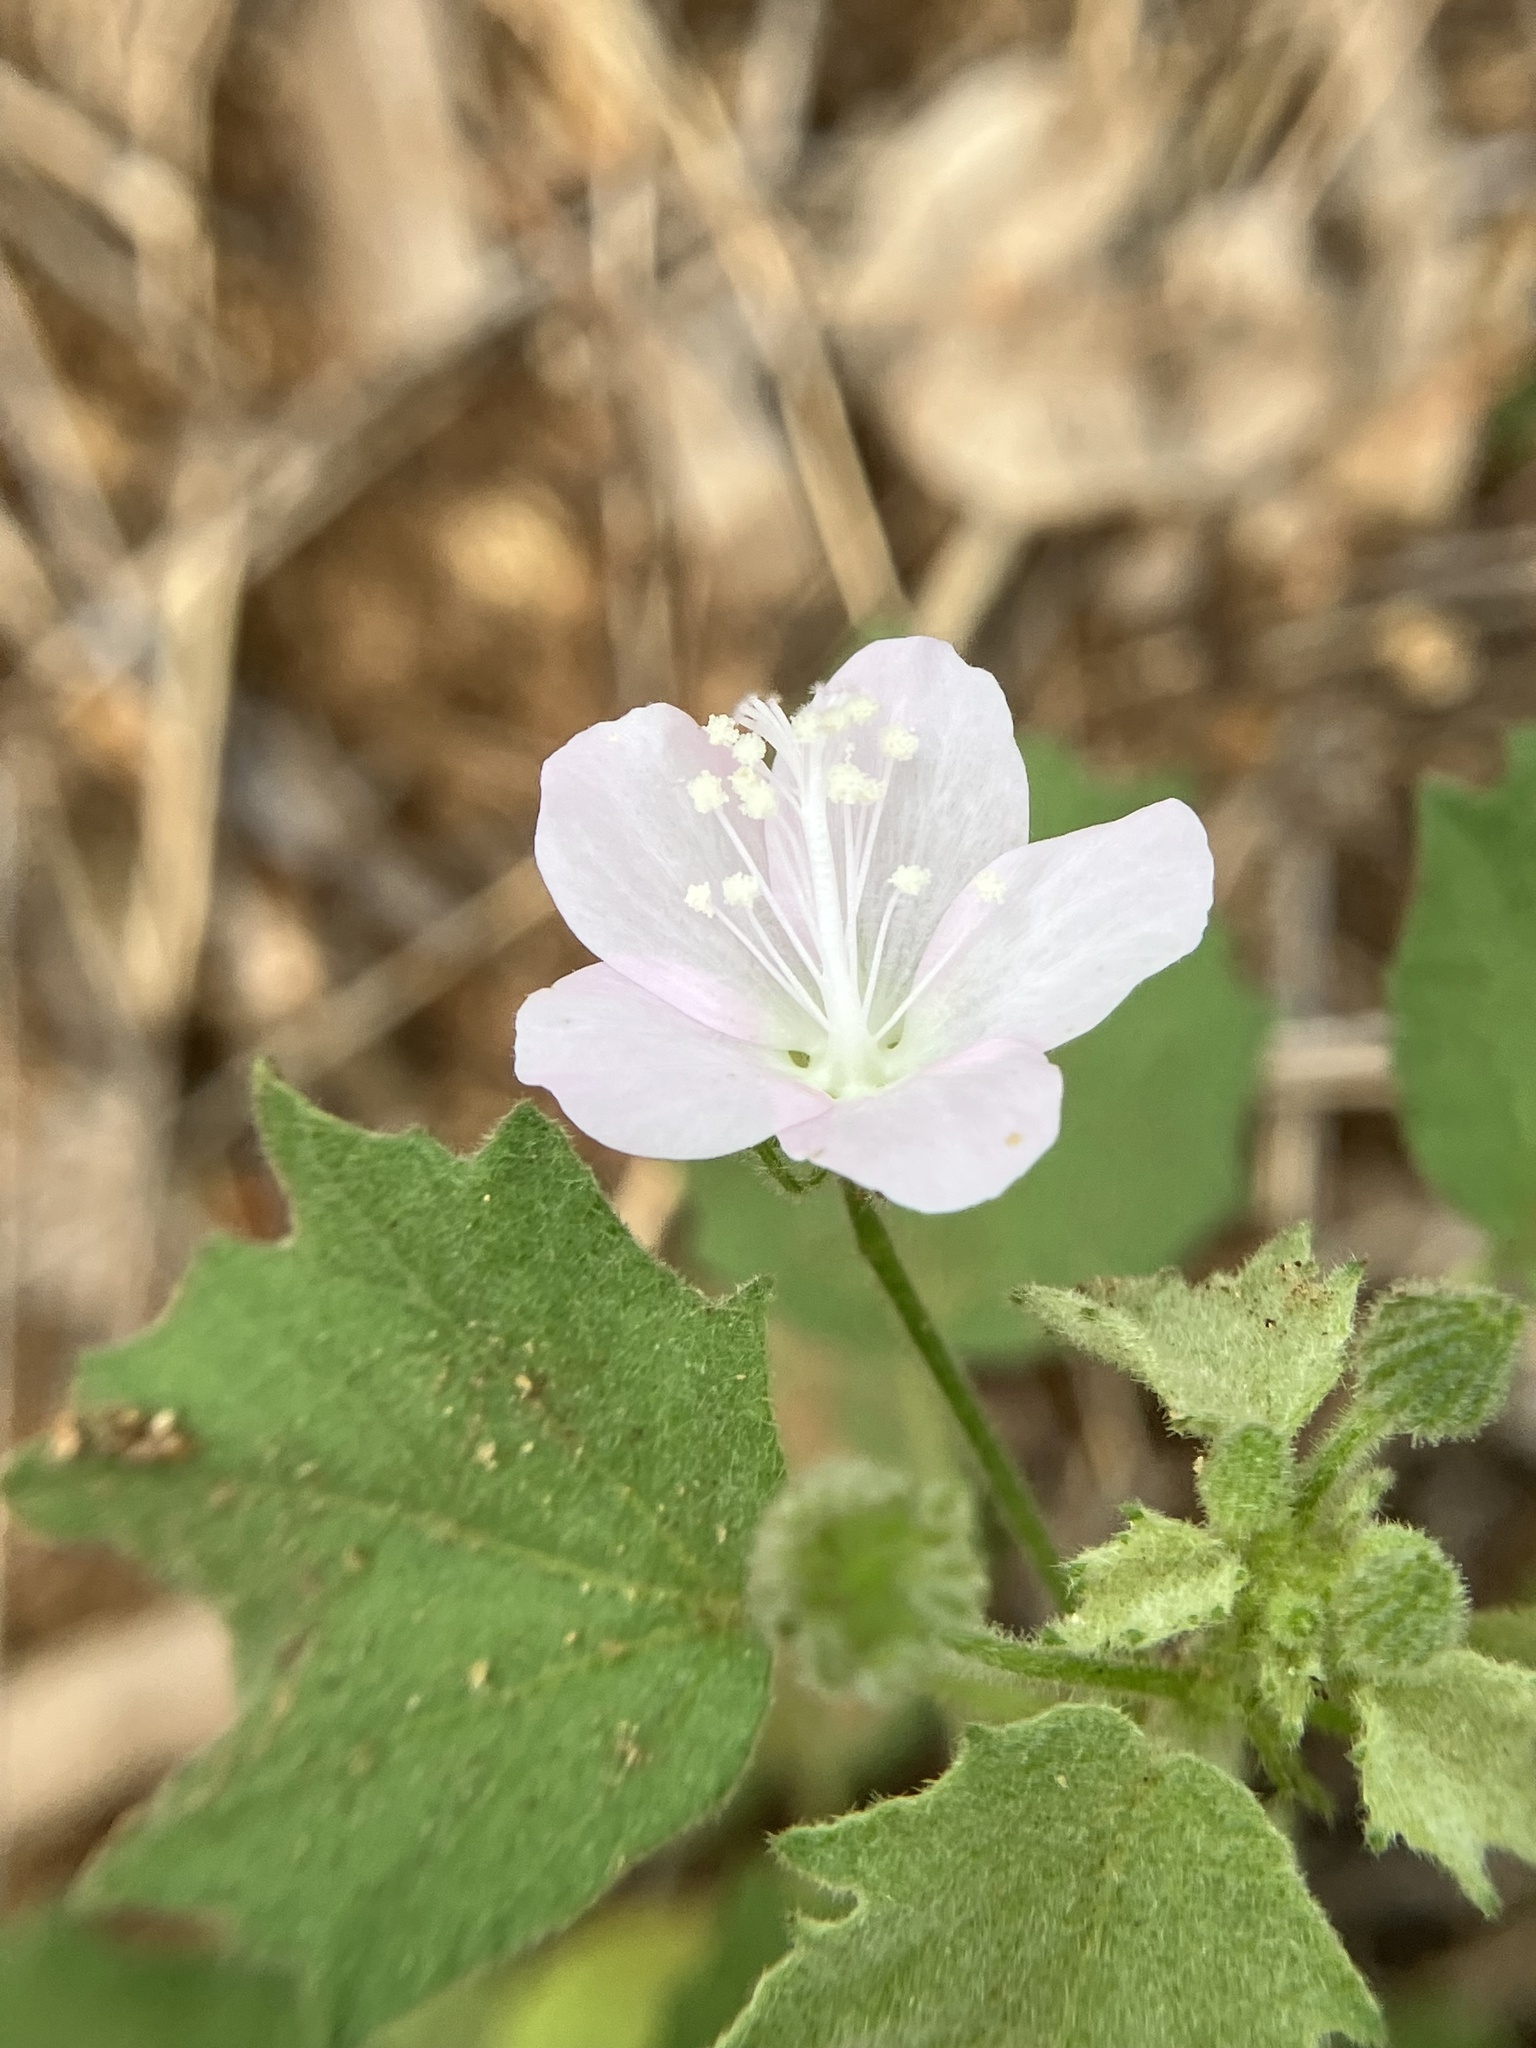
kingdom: Plantae
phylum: Tracheophyta
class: Magnoliopsida
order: Malvales
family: Malvaceae
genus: Pavonia
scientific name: Pavonia zeylanica
